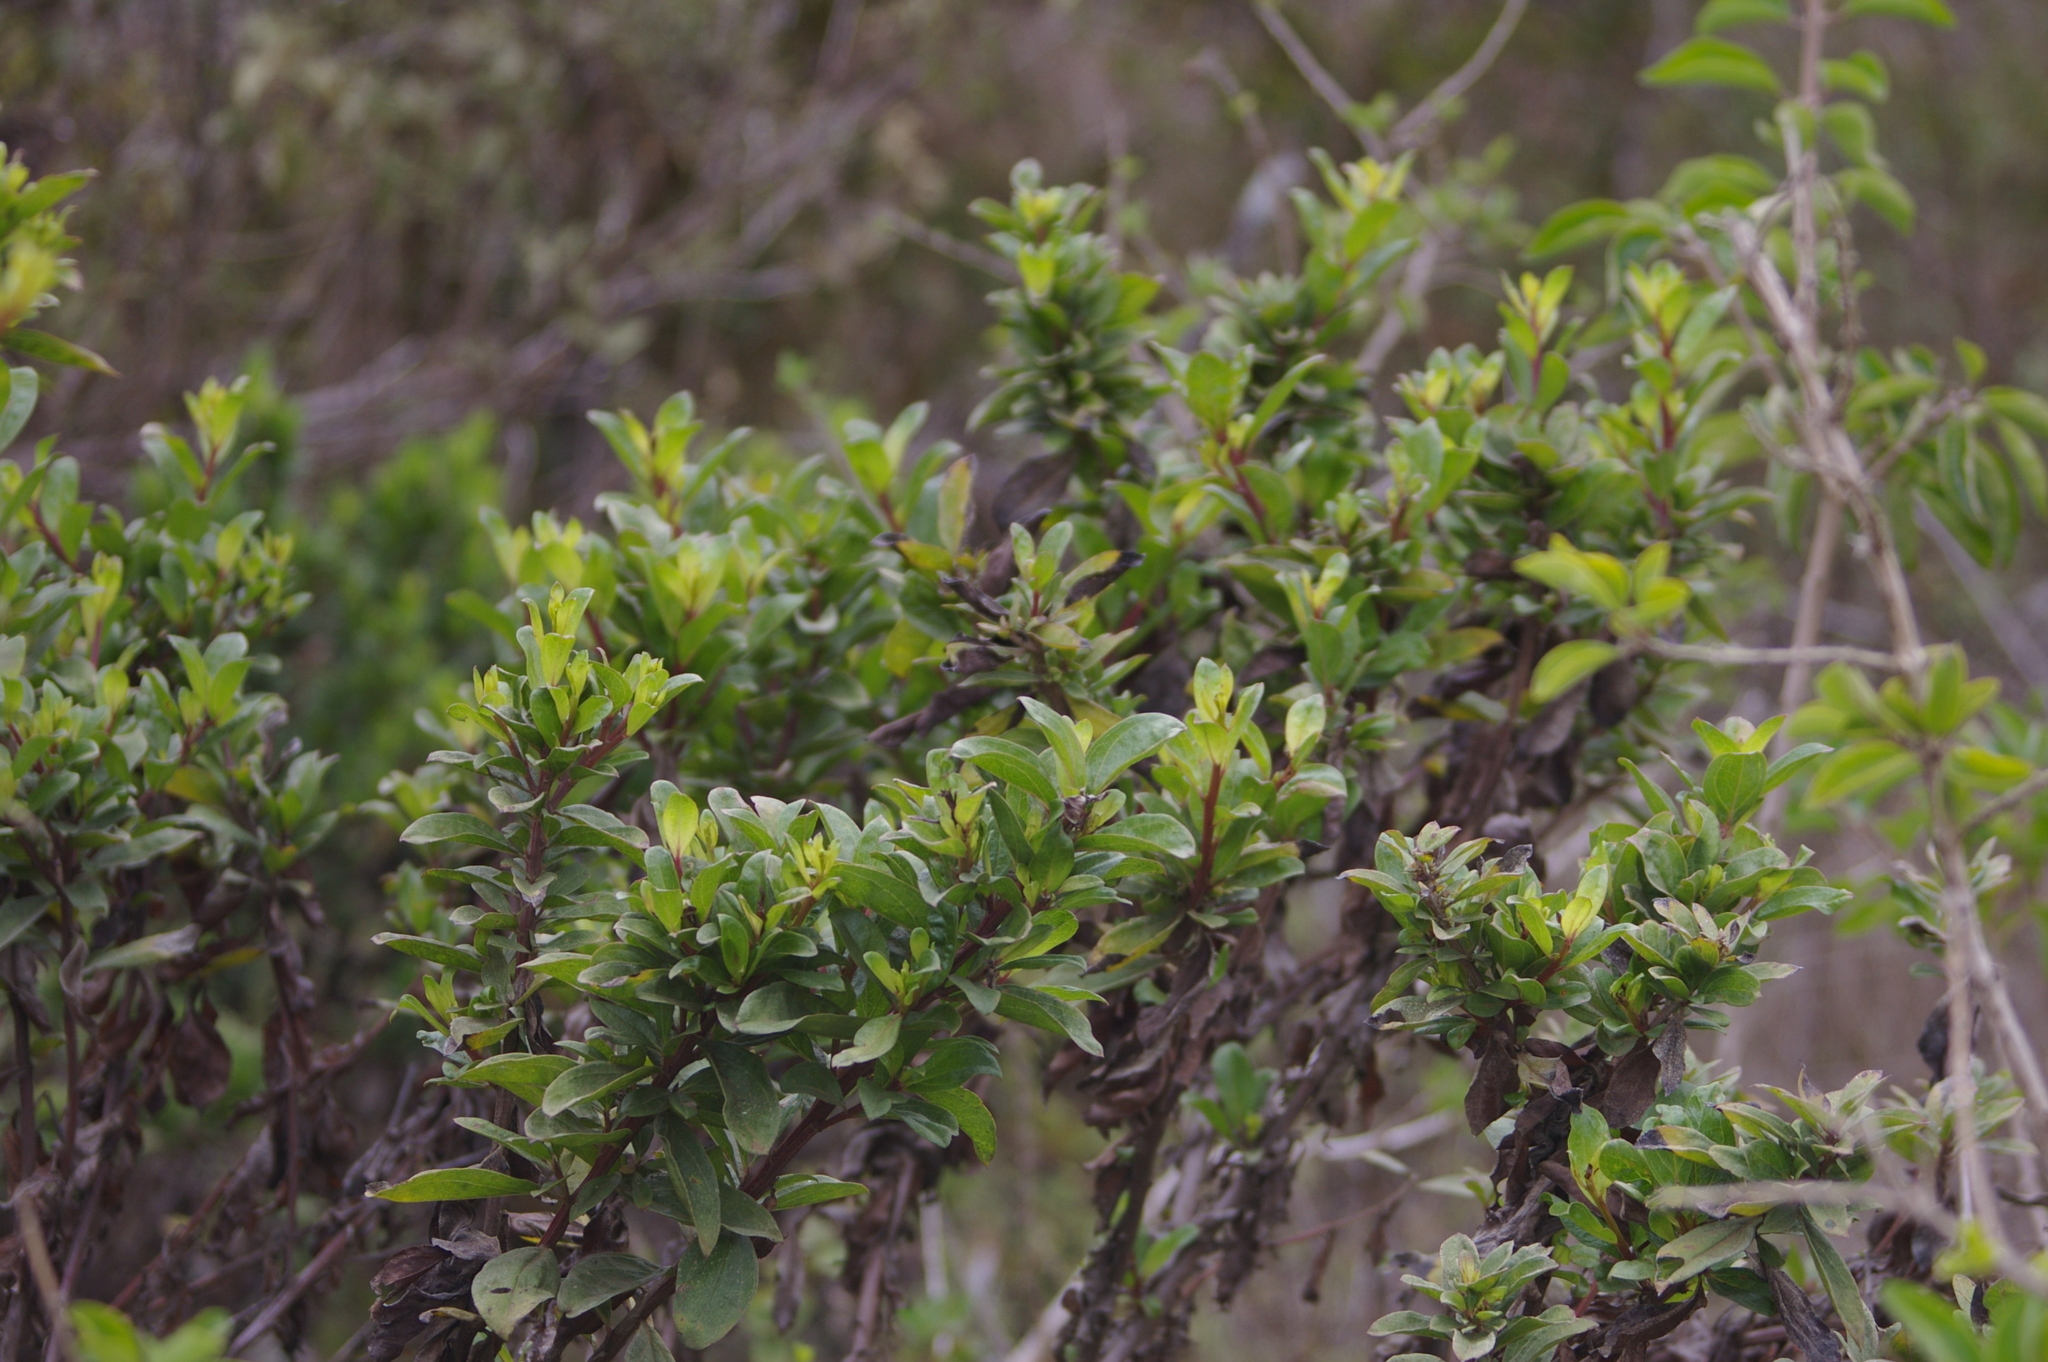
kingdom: Plantae
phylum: Tracheophyta
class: Magnoliopsida
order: Asterales
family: Asteraceae
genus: Baccharis
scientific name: Baccharis steetzii
